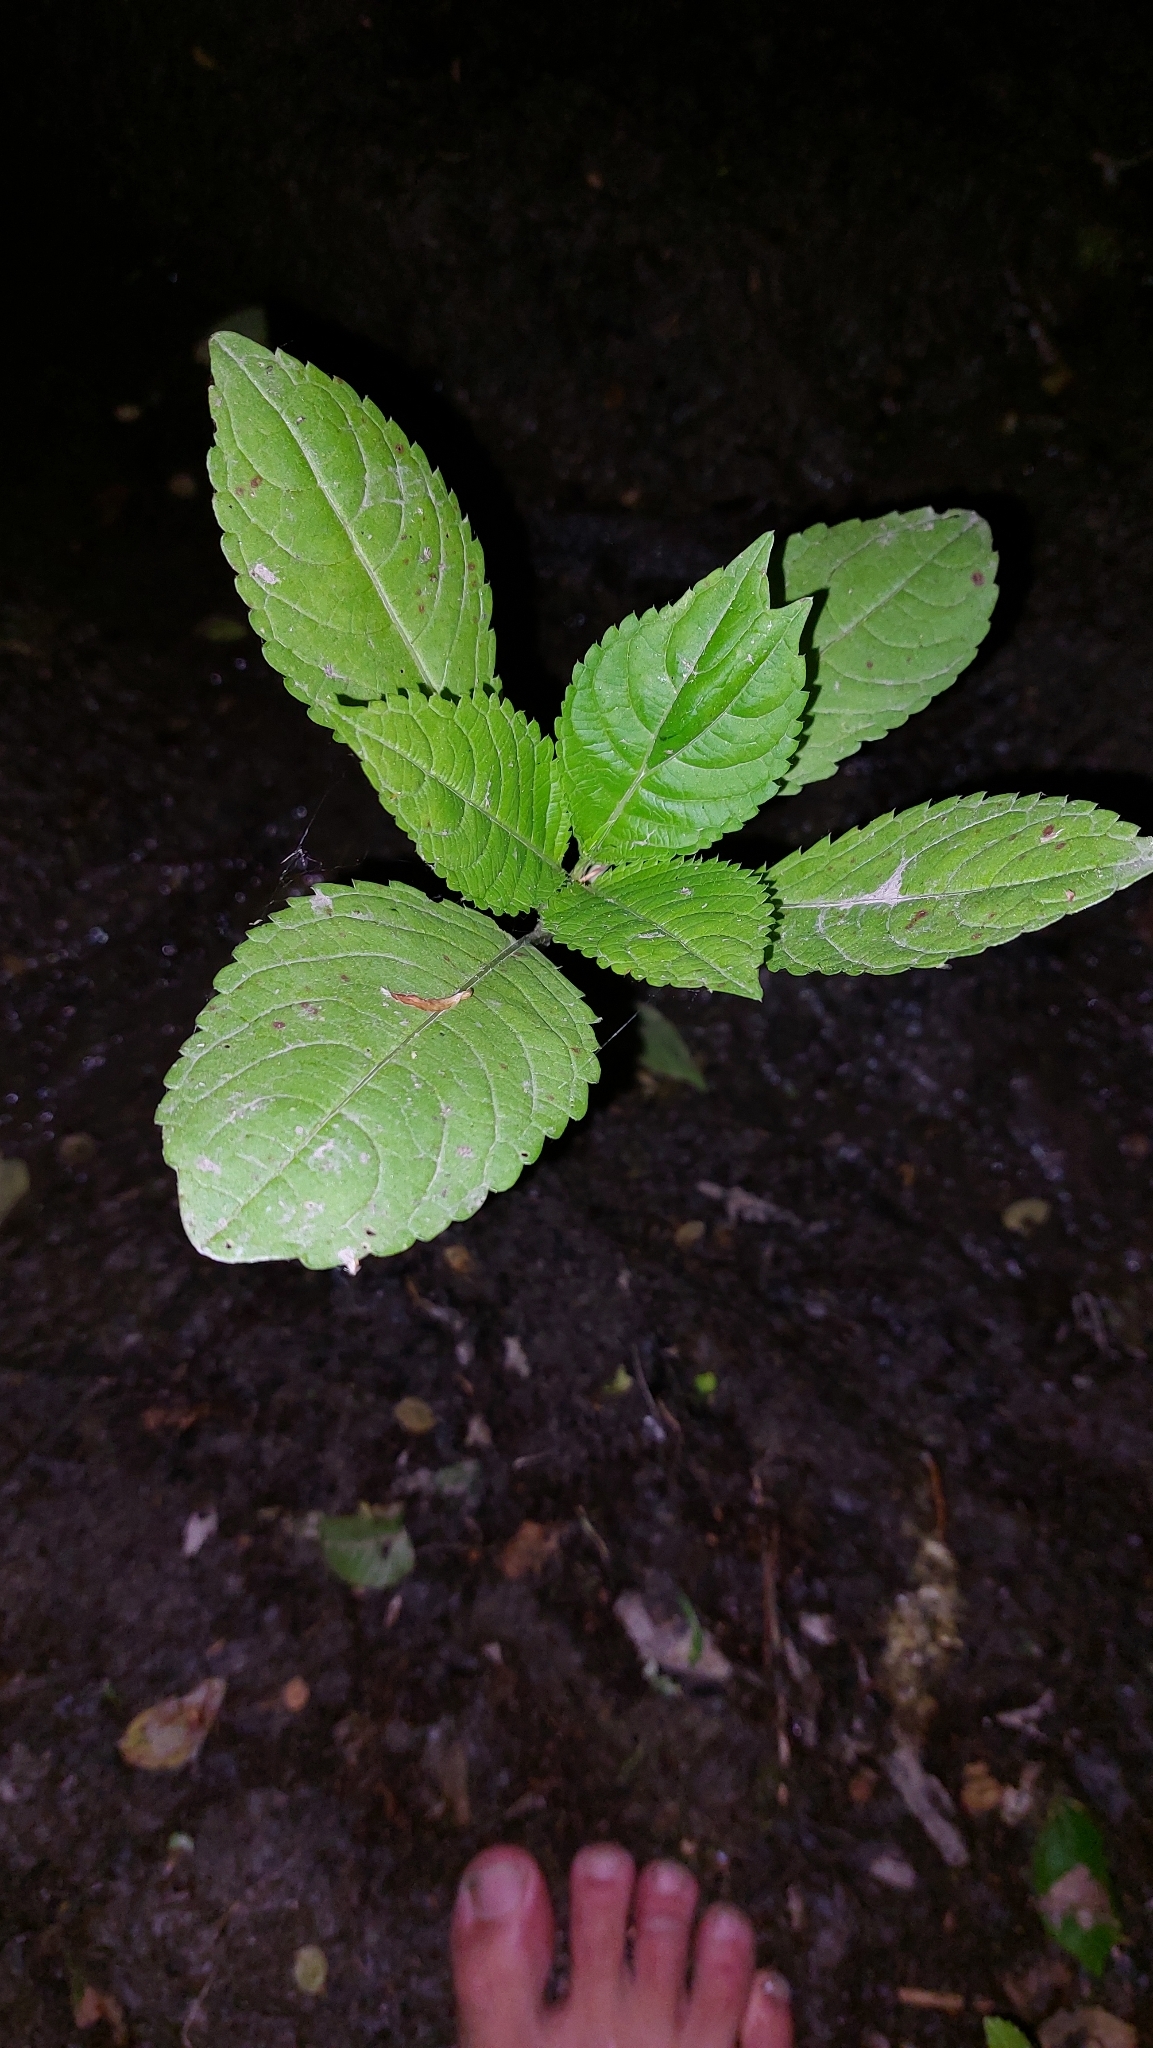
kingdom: Plantae
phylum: Tracheophyta
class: Magnoliopsida
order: Ericales
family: Balsaminaceae
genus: Impatiens
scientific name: Impatiens glandulifera
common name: Himalayan balsam
